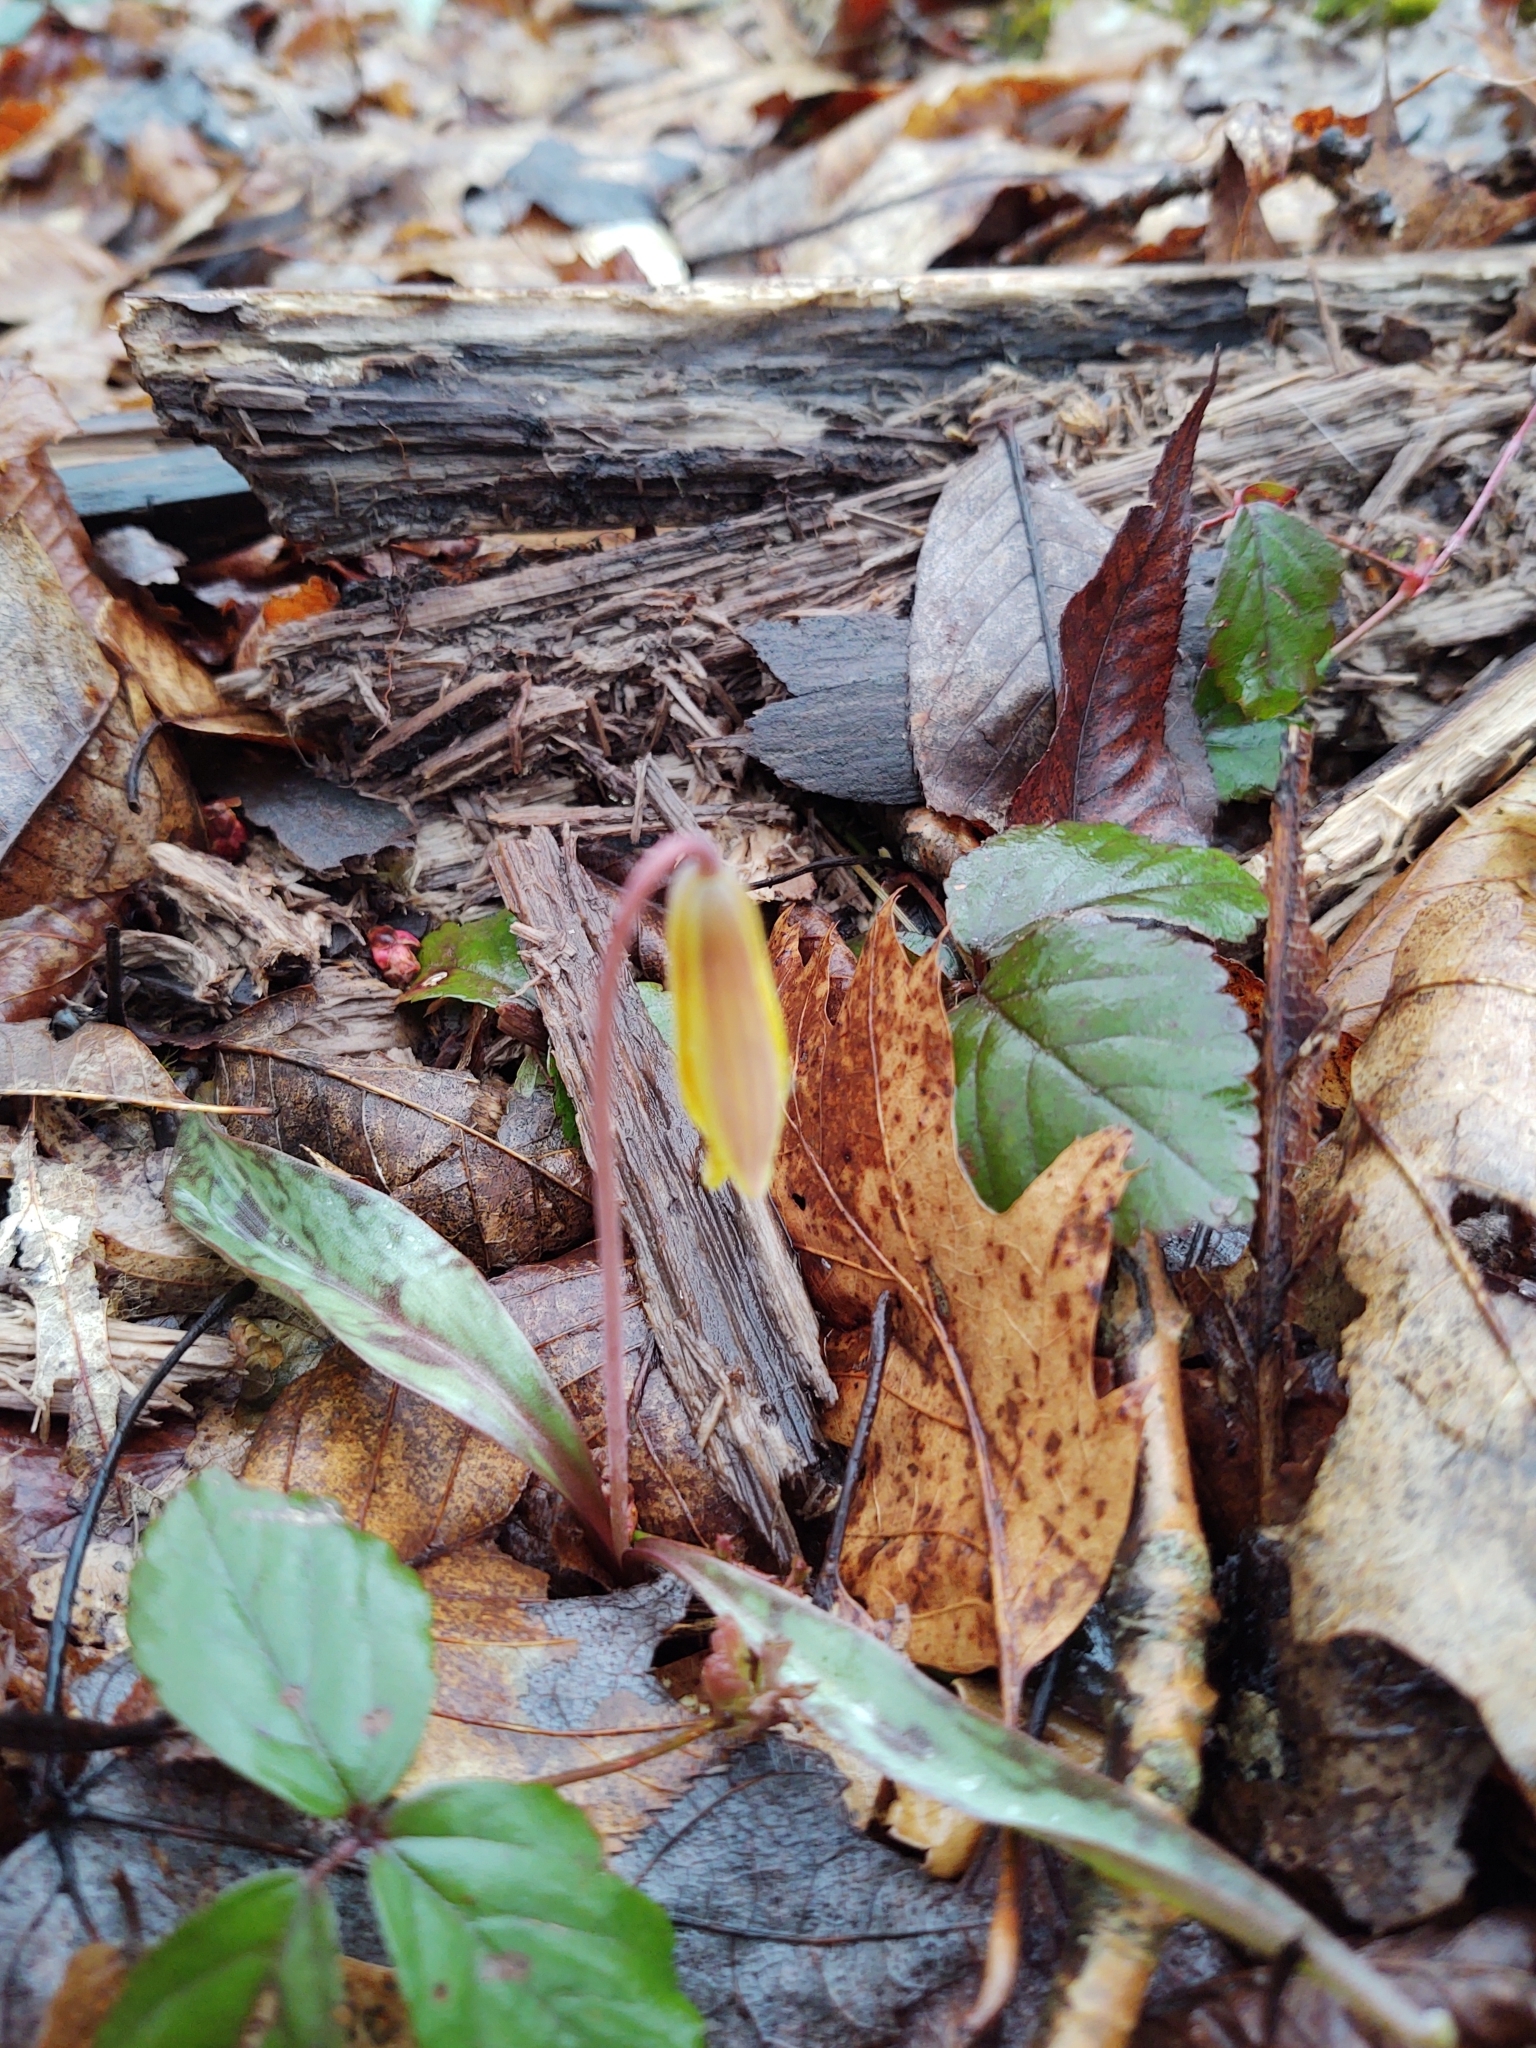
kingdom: Plantae
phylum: Tracheophyta
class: Liliopsida
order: Liliales
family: Liliaceae
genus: Erythronium
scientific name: Erythronium americanum
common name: Yellow adder's-tongue
